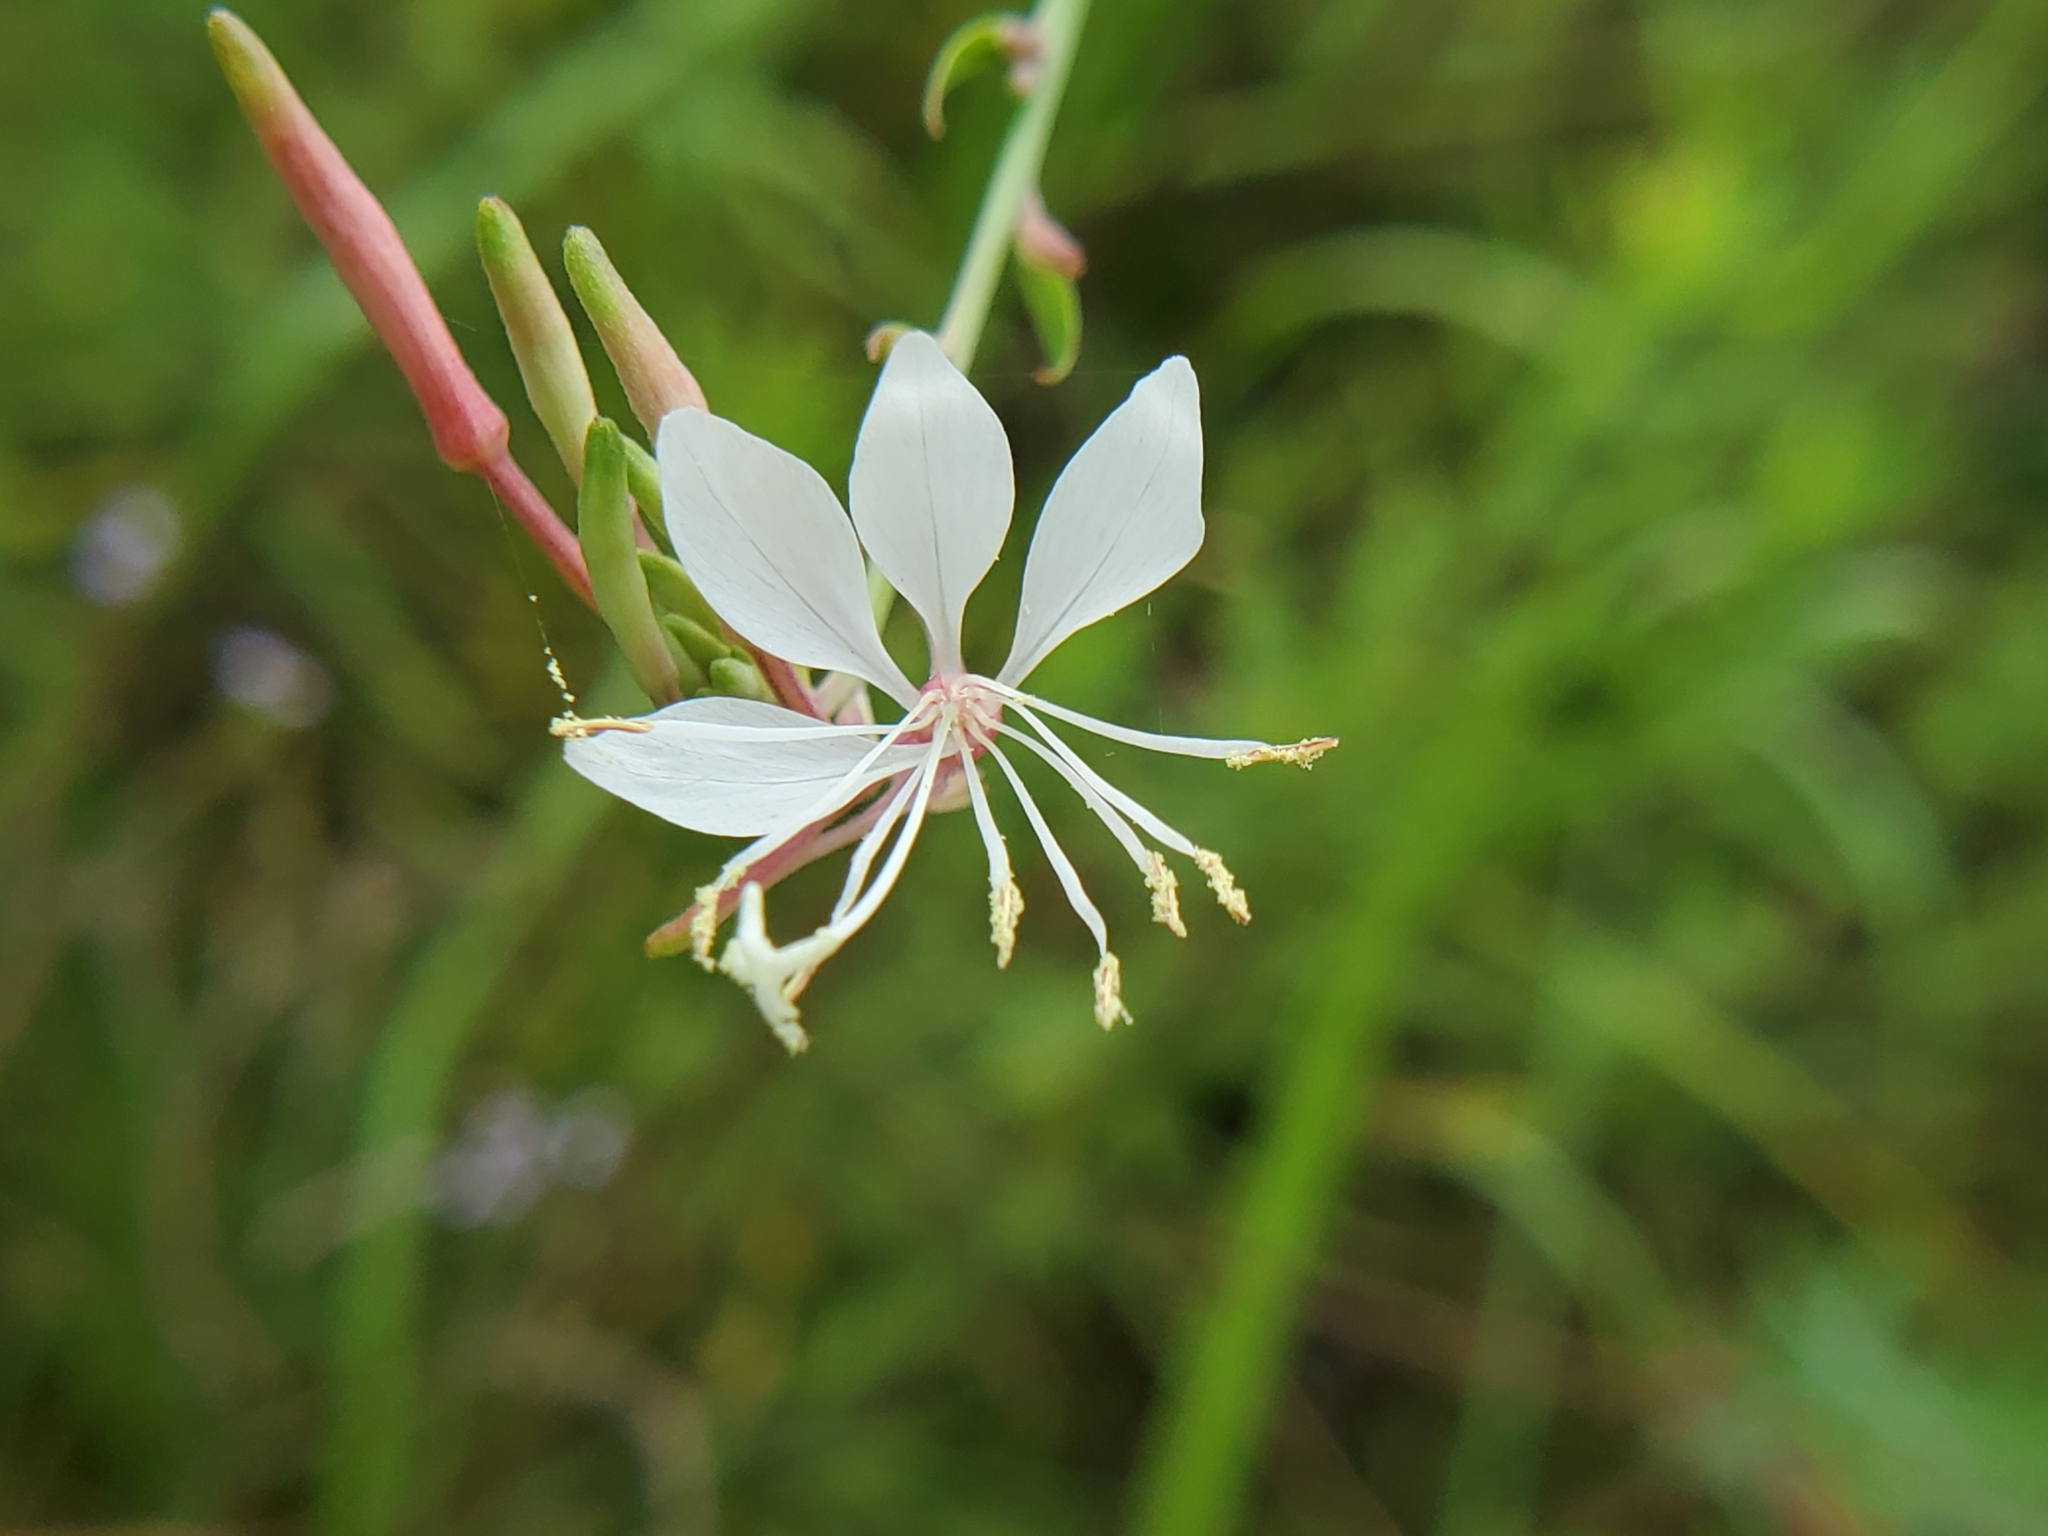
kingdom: Plantae
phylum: Tracheophyta
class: Magnoliopsida
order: Myrtales
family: Onagraceae
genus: Oenothera
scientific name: Oenothera filiformis
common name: Longflower beeblossom
